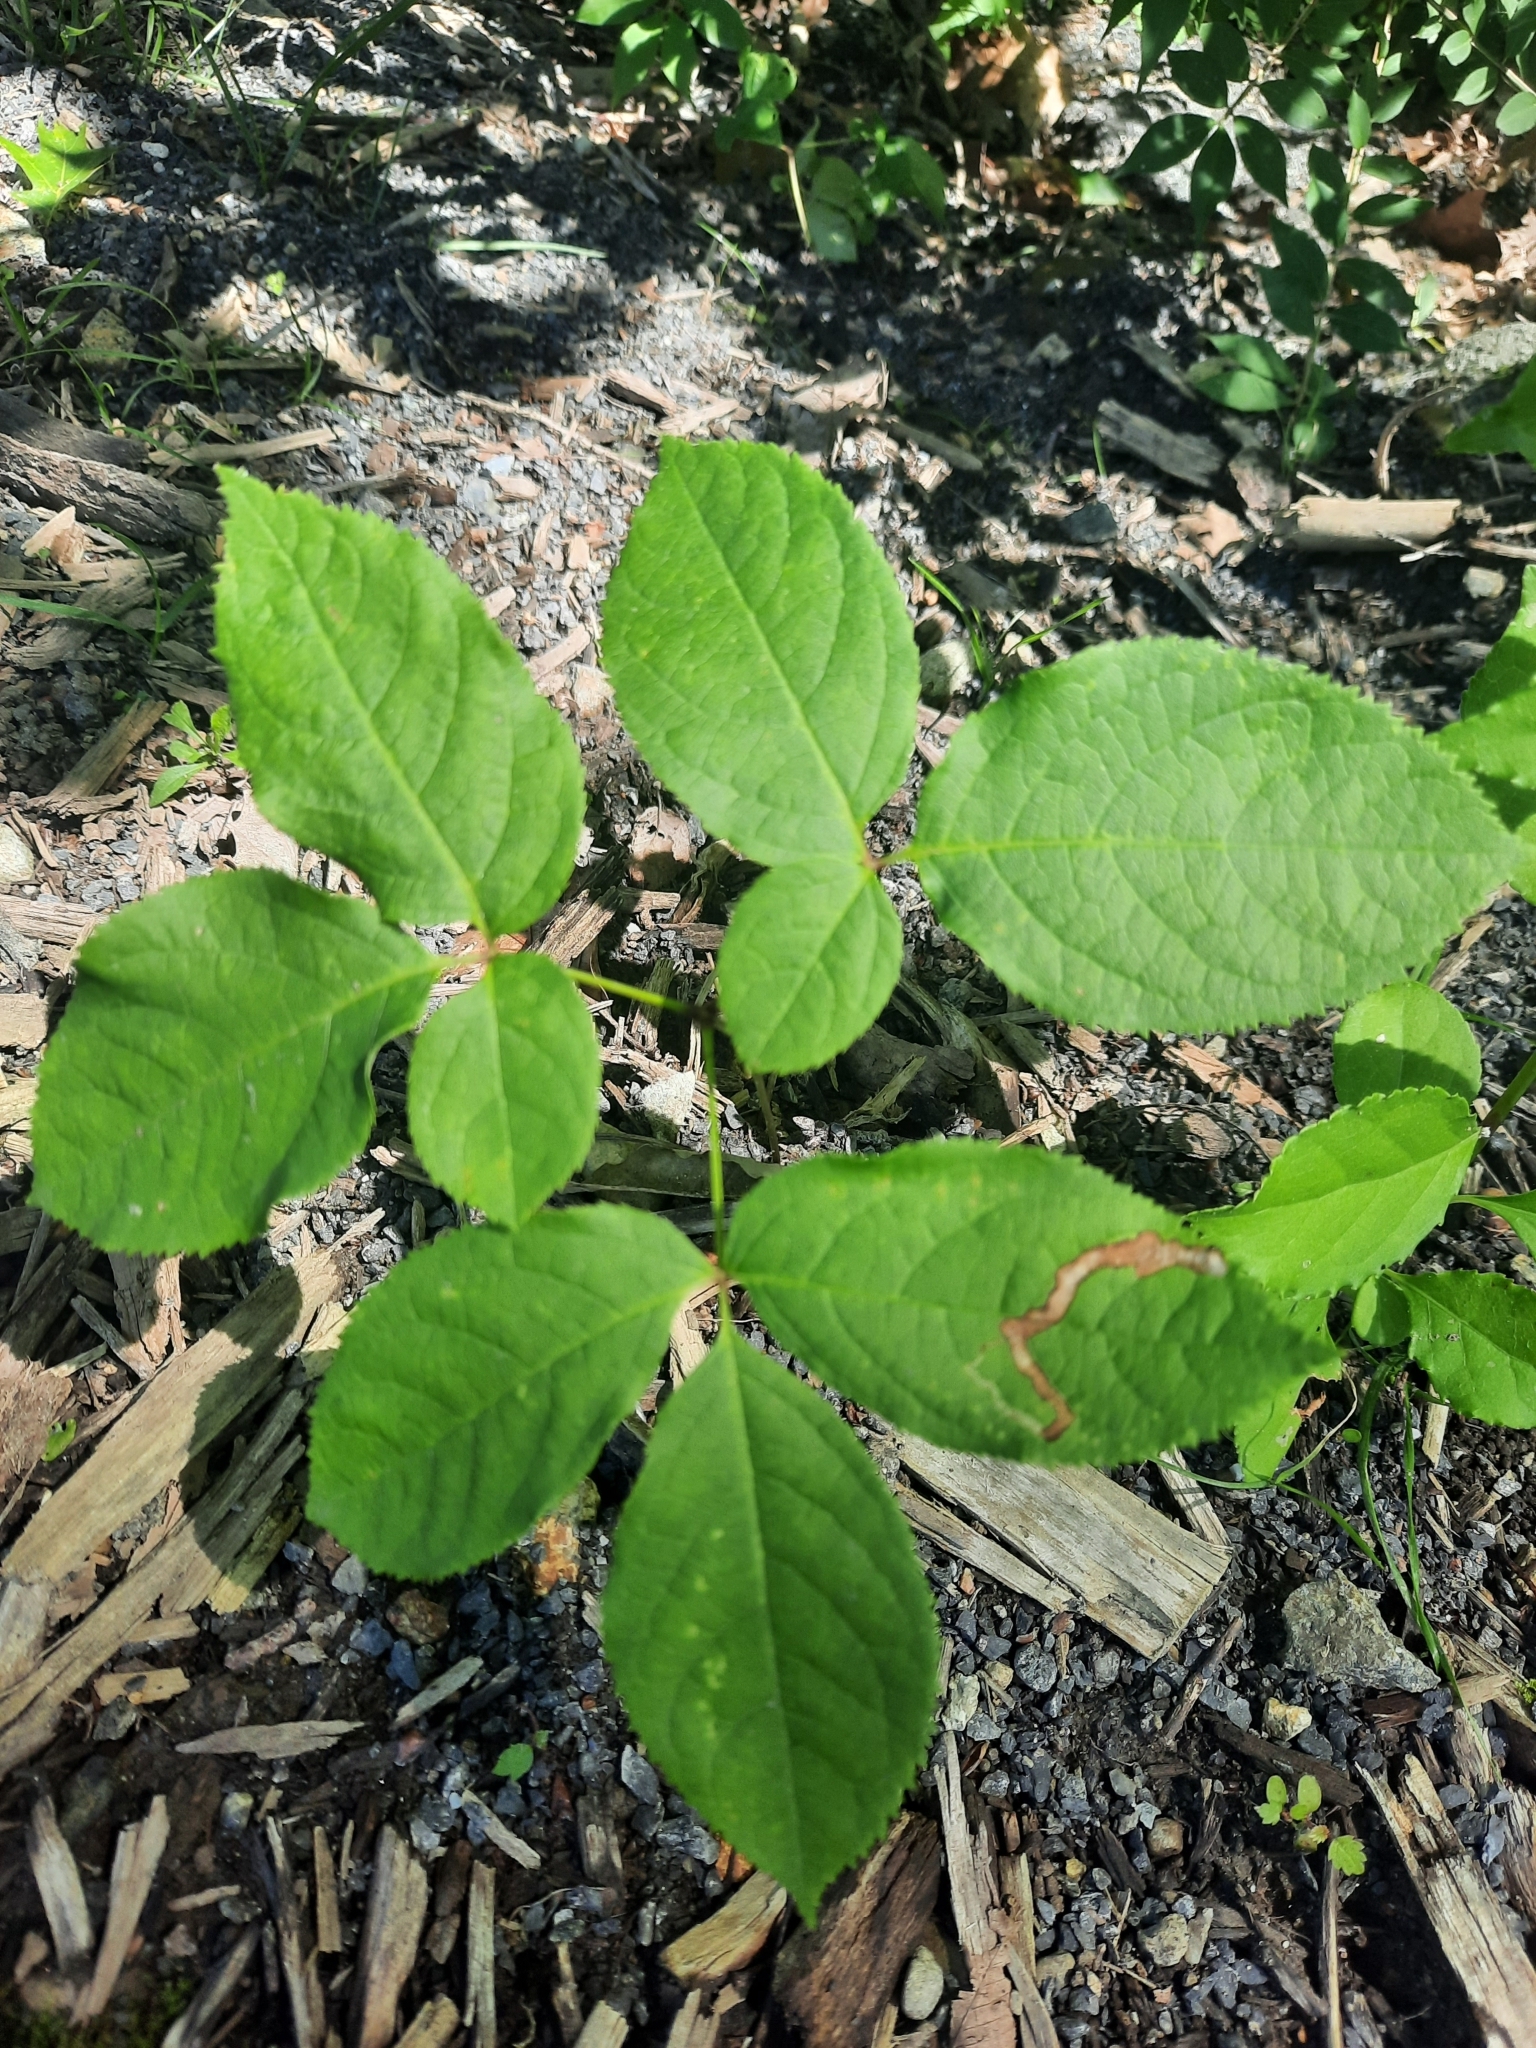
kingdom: Plantae
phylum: Tracheophyta
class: Magnoliopsida
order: Apiales
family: Araliaceae
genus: Aralia
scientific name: Aralia nudicaulis
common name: Wild sarsaparilla
